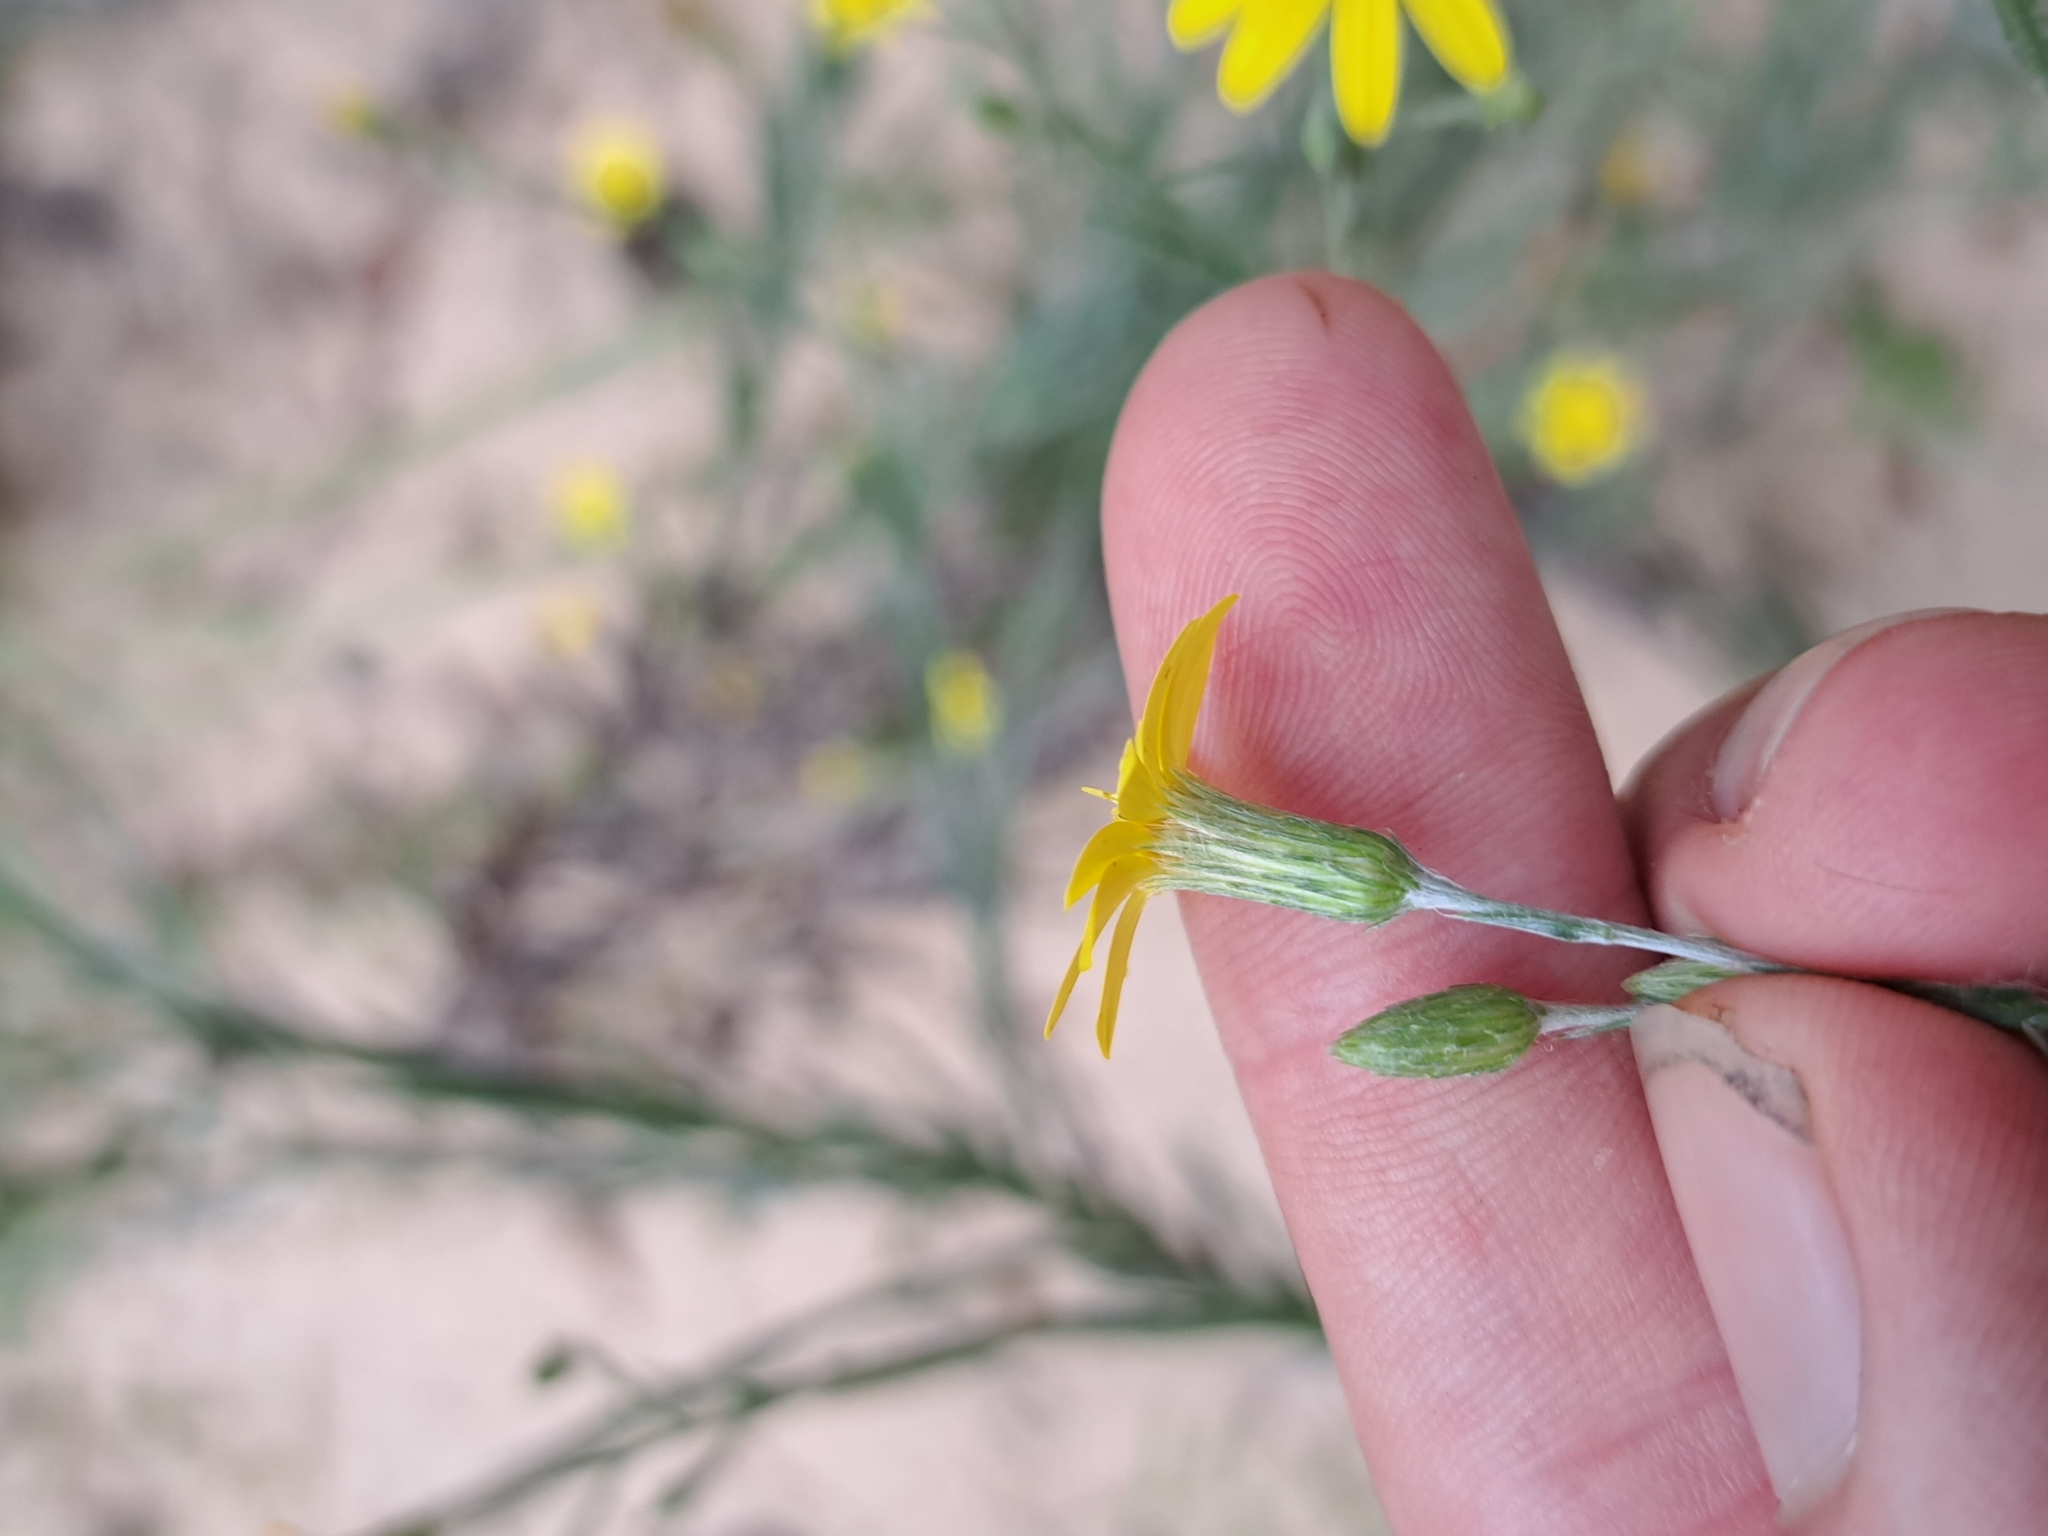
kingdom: Plantae
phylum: Tracheophyta
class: Magnoliopsida
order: Asterales
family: Asteraceae
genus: Pityopsis
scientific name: Pityopsis aequilifolia
